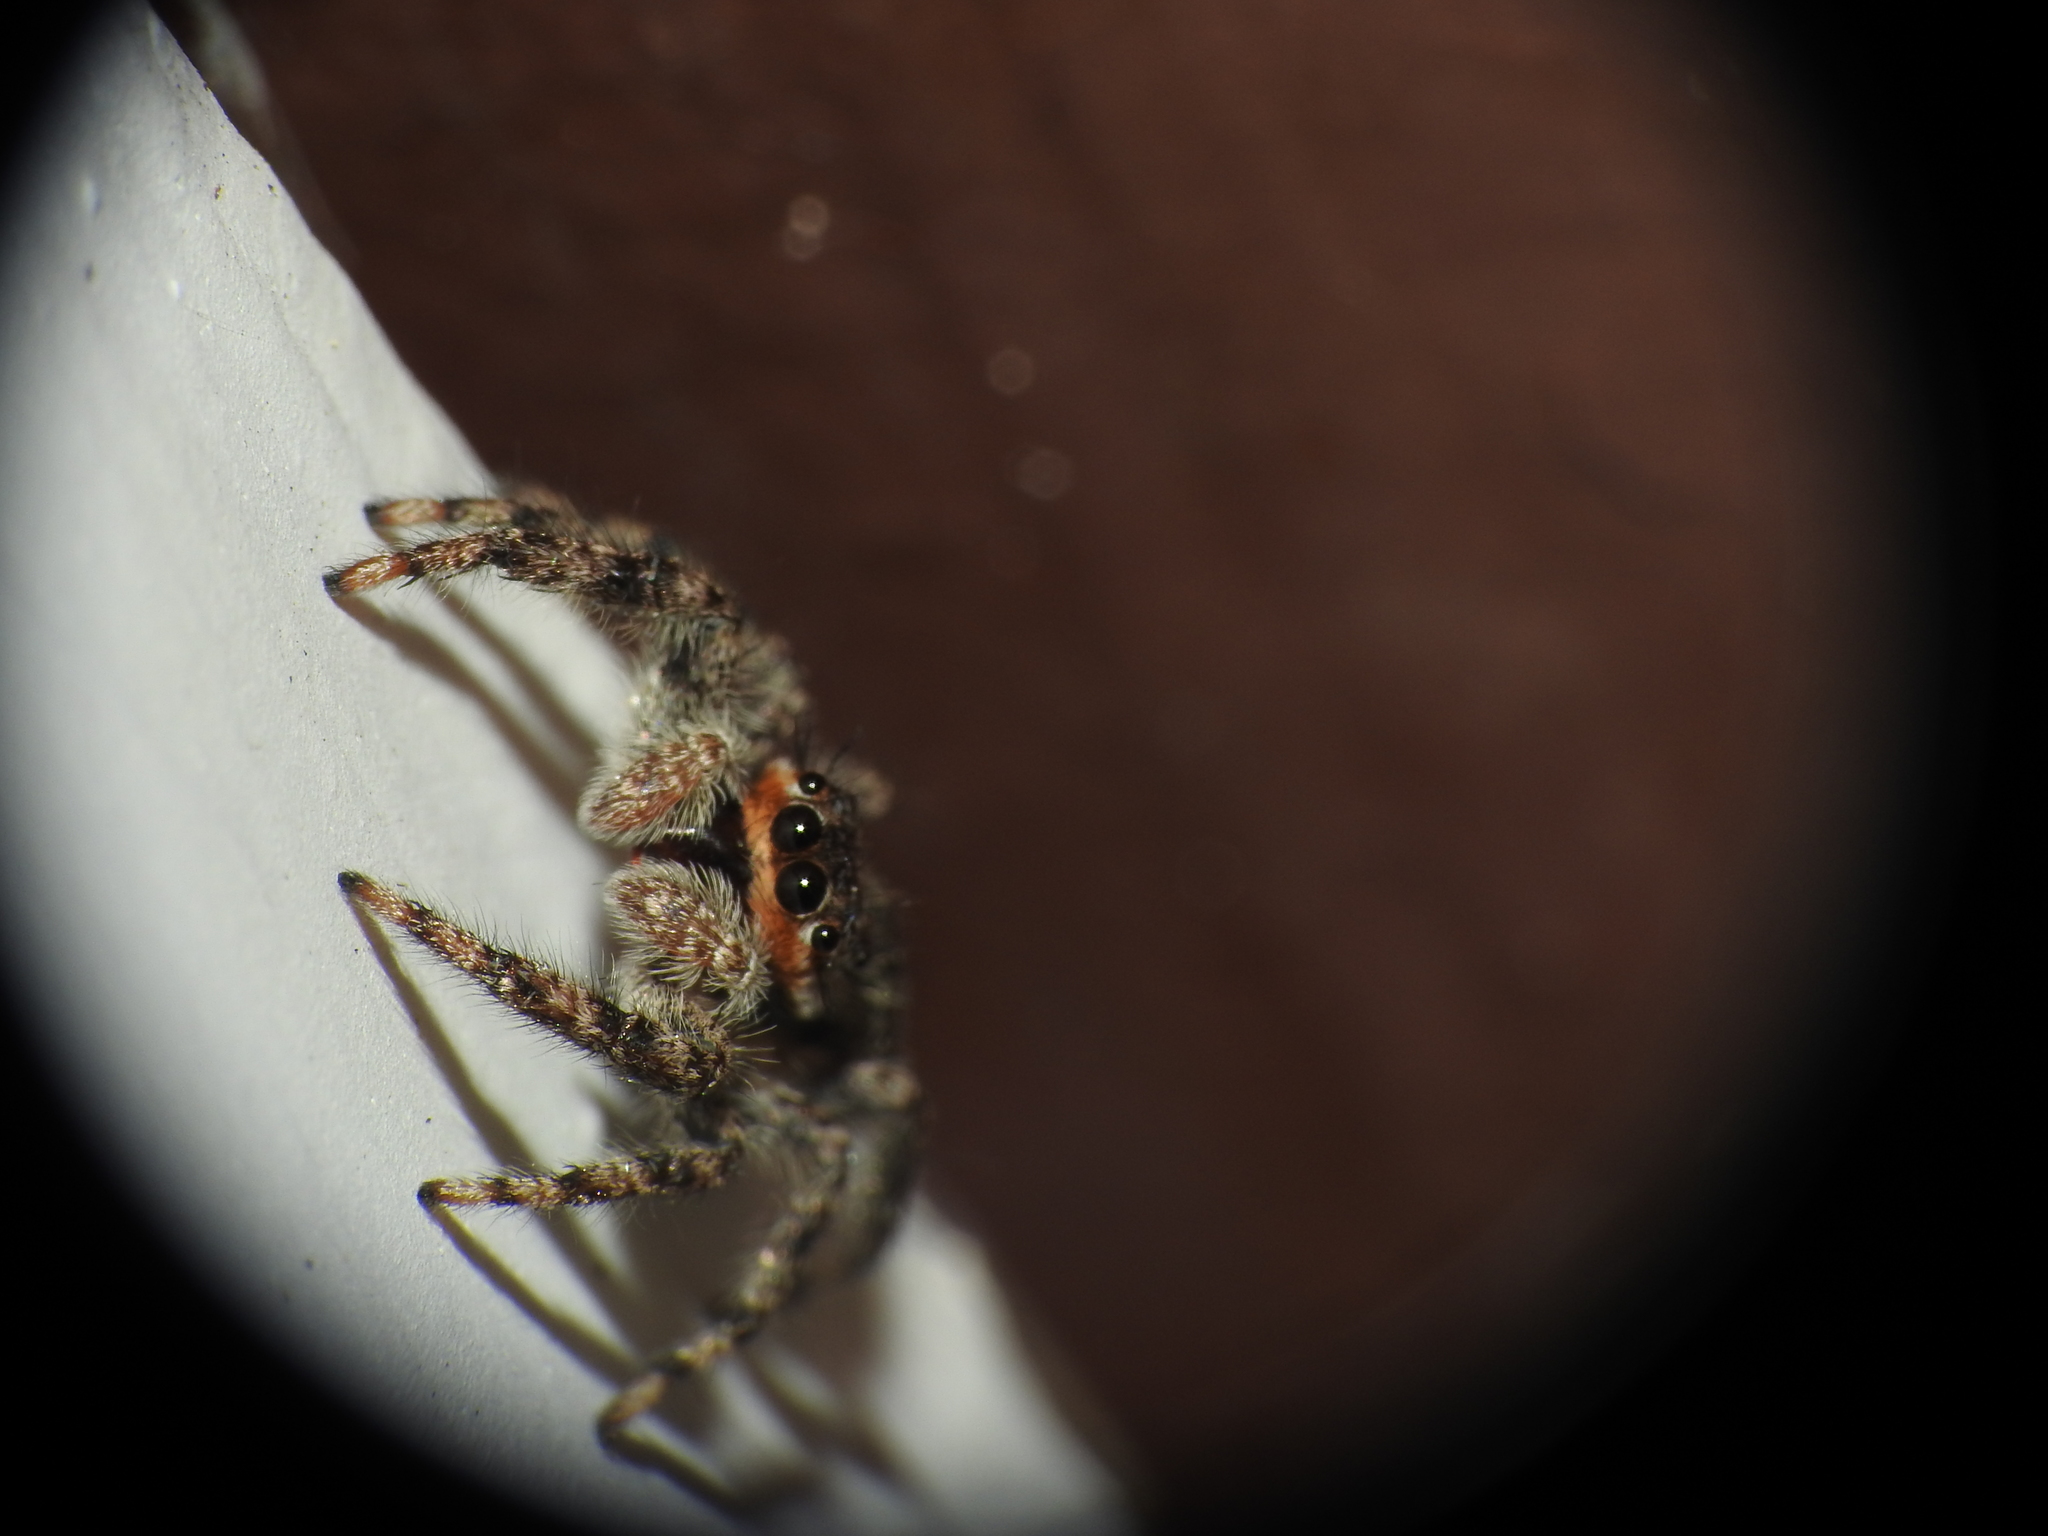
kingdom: Animalia
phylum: Arthropoda
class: Arachnida
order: Araneae
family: Salticidae
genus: Platycryptus
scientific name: Platycryptus undatus
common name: Tan jumping spider
